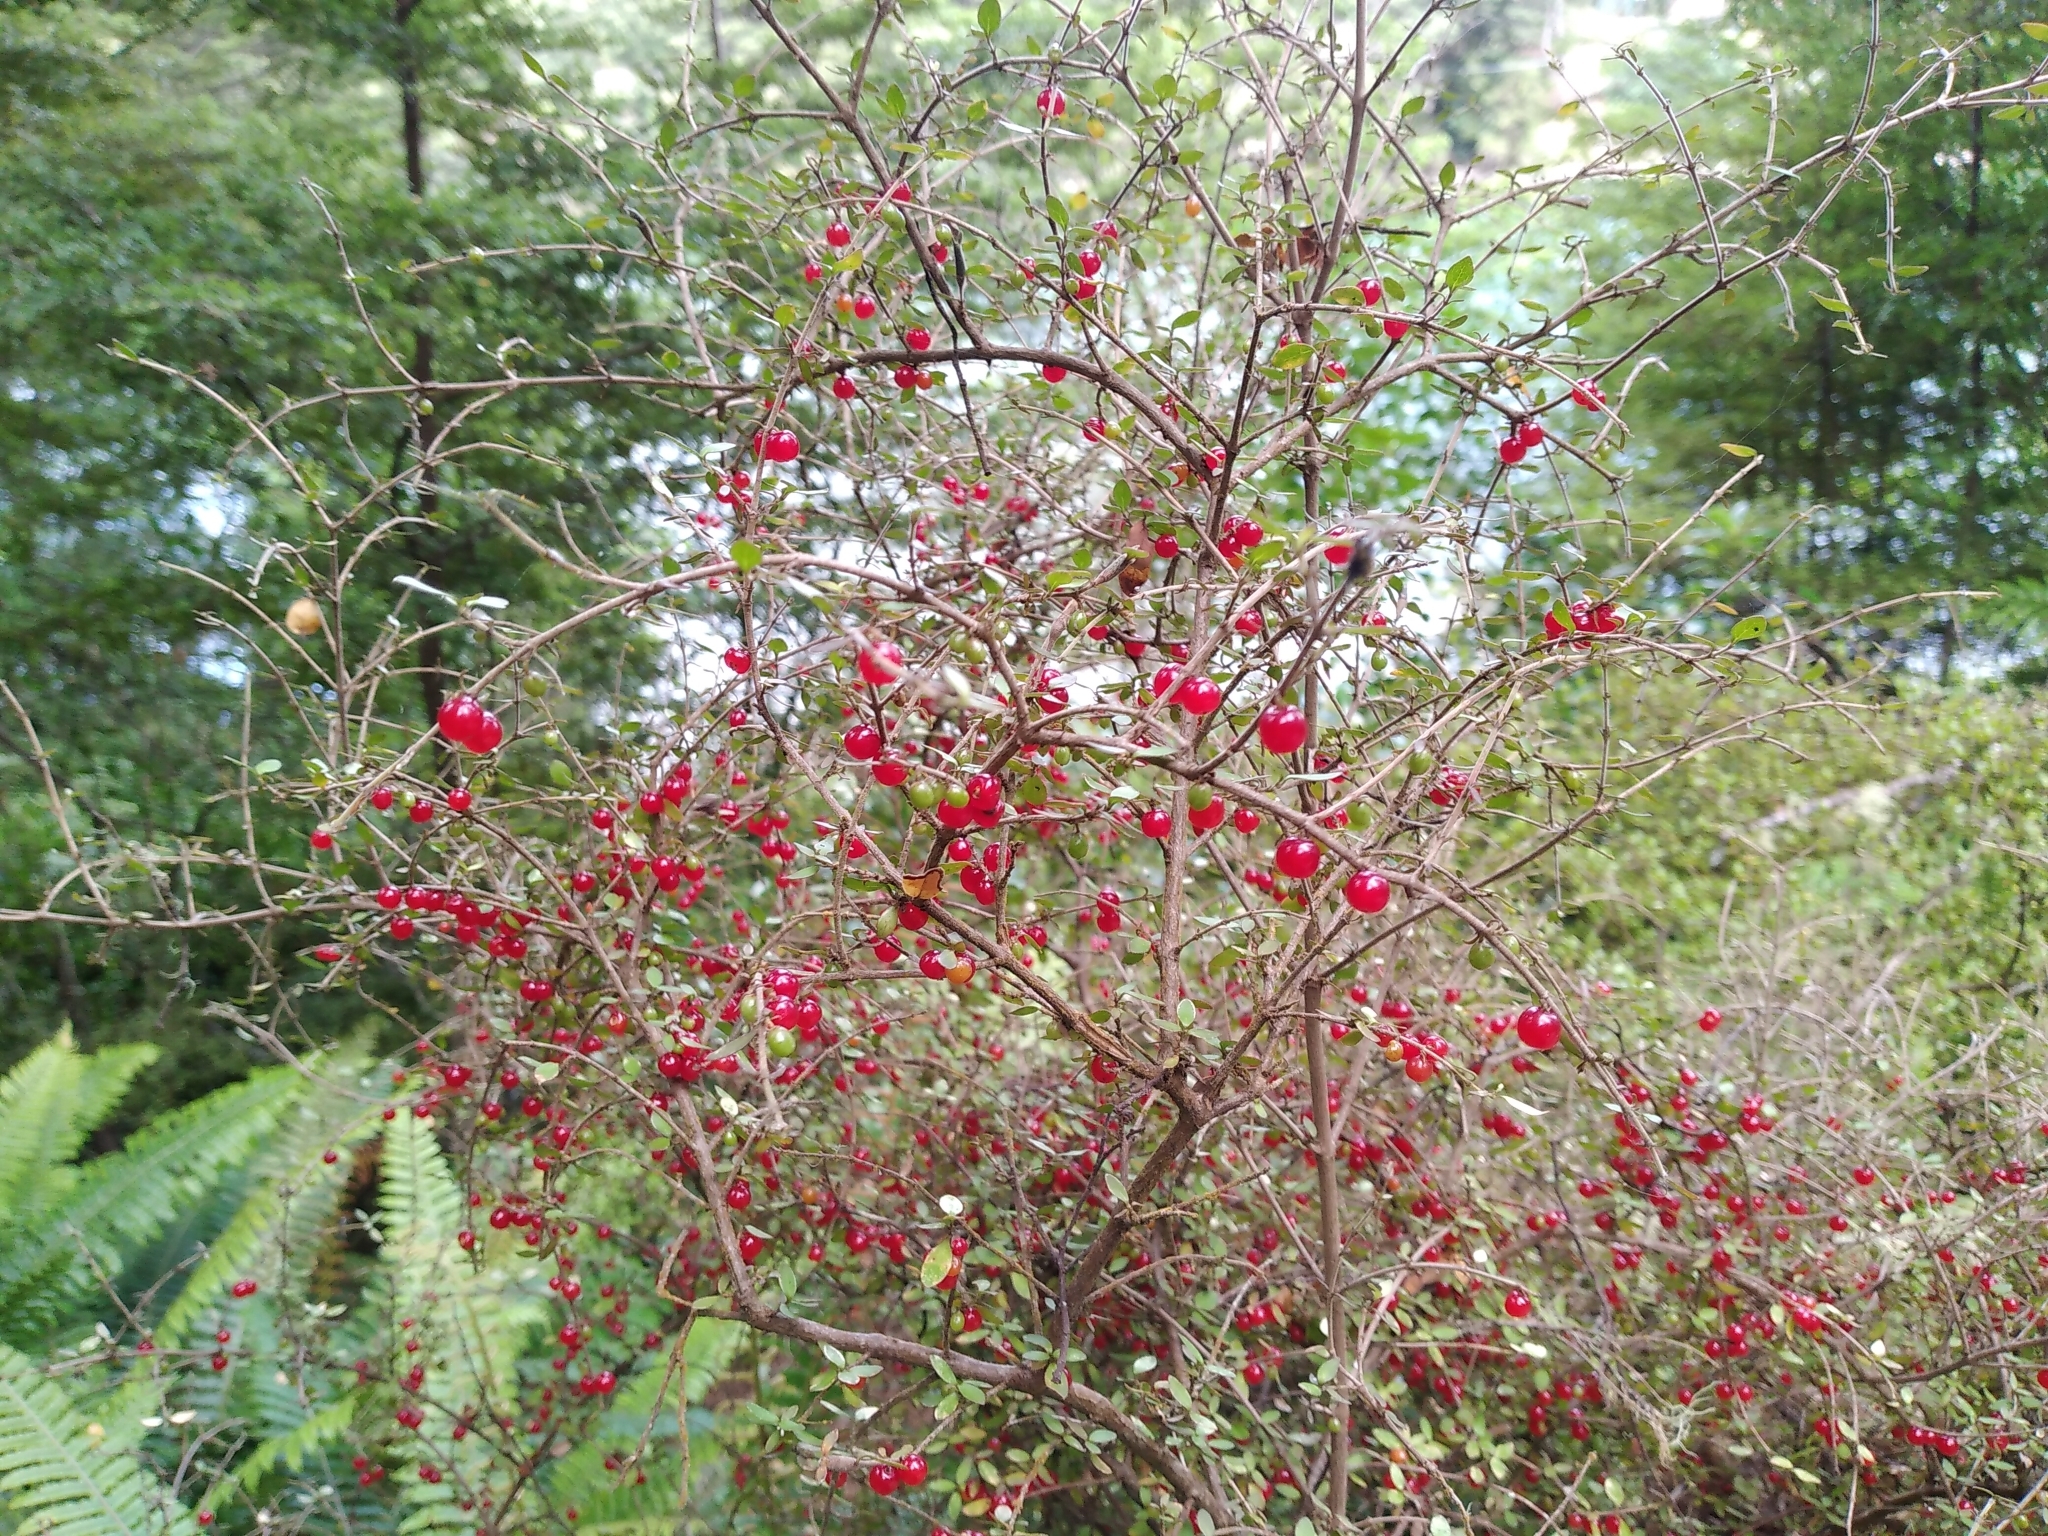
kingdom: Plantae
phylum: Tracheophyta
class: Magnoliopsida
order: Gentianales
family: Rubiaceae
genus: Coprosma
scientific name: Coprosma rhamnoides
